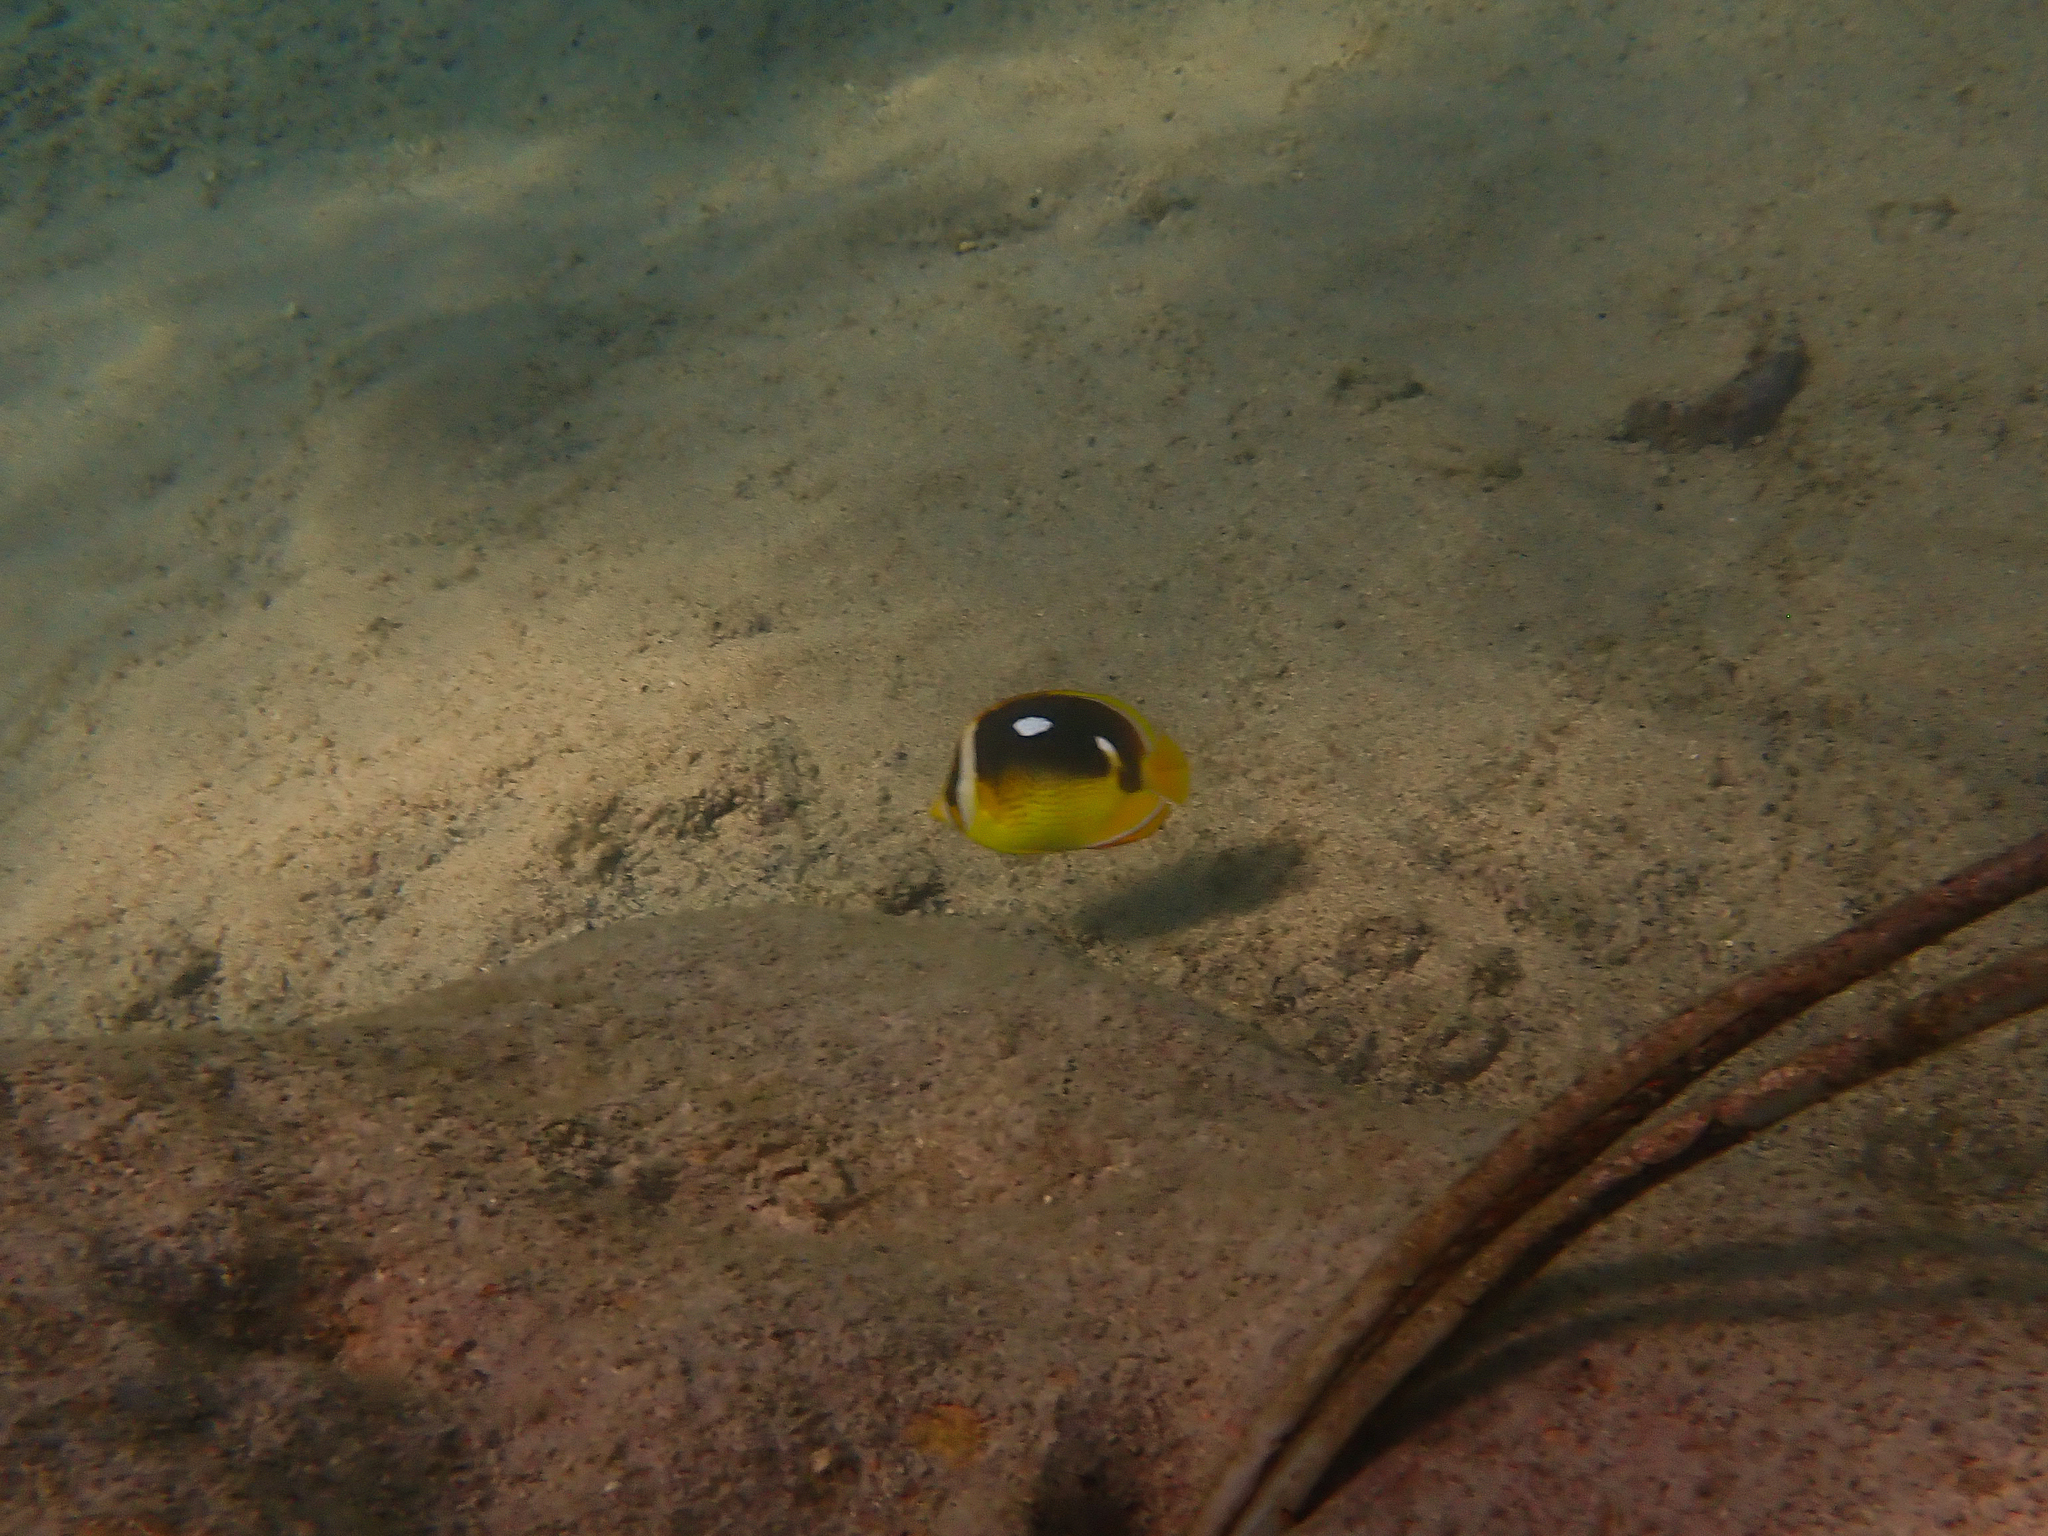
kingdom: Animalia
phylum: Chordata
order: Perciformes
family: Chaetodontidae
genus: Chaetodon
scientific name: Chaetodon quadrimaculatus
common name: Fourspot butterflyfish
